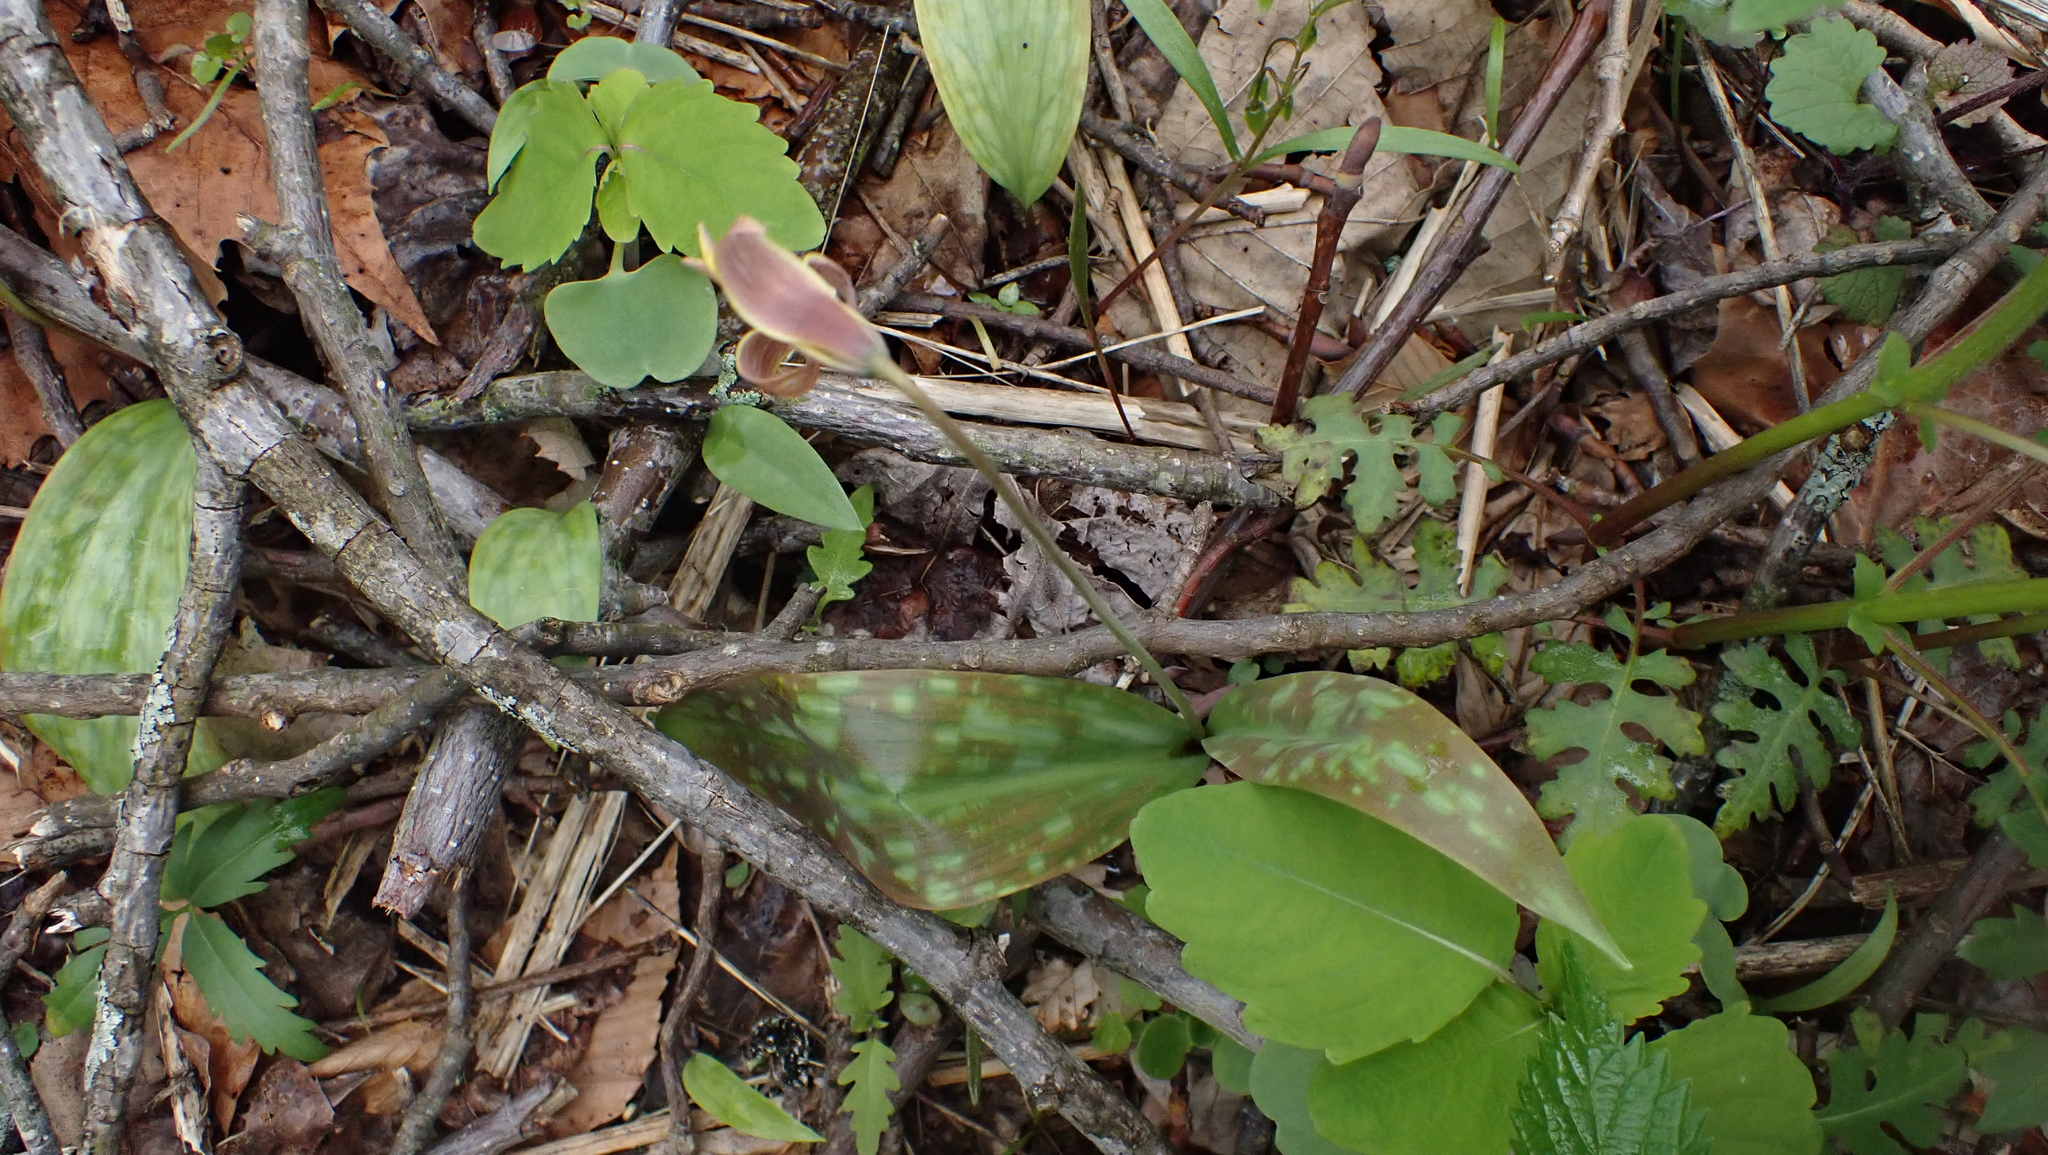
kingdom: Plantae
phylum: Tracheophyta
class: Liliopsida
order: Liliales
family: Liliaceae
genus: Erythronium
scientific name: Erythronium americanum
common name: Yellow adder's-tongue
